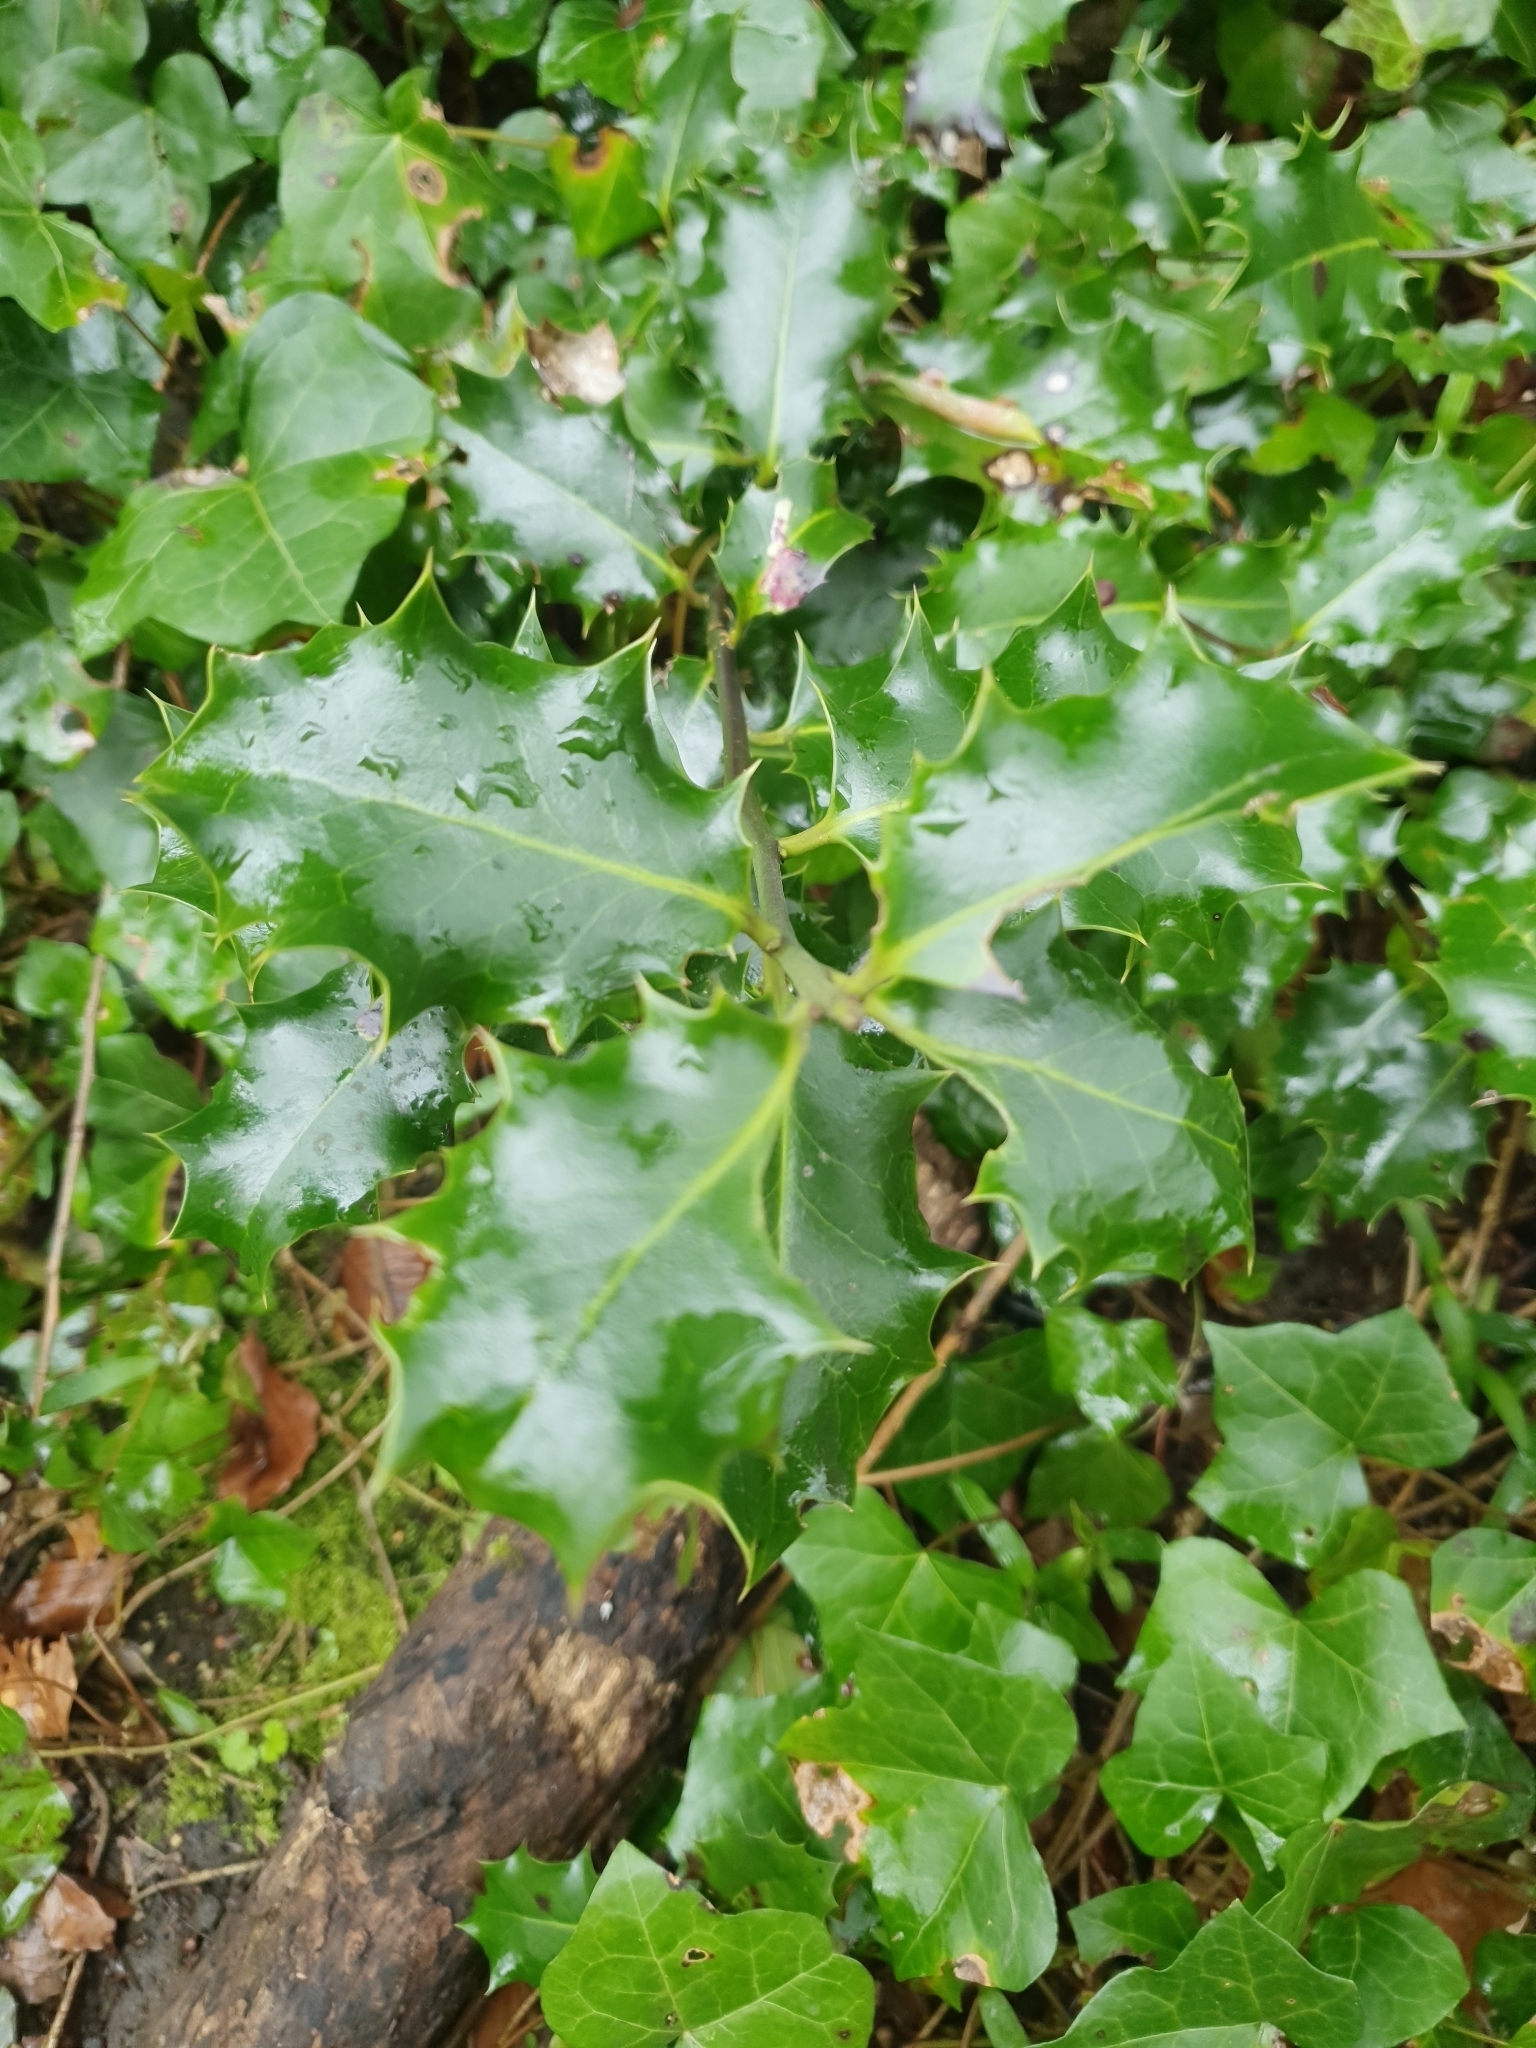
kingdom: Plantae
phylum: Tracheophyta
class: Magnoliopsida
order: Aquifoliales
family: Aquifoliaceae
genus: Ilex
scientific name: Ilex aquifolium
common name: English holly
